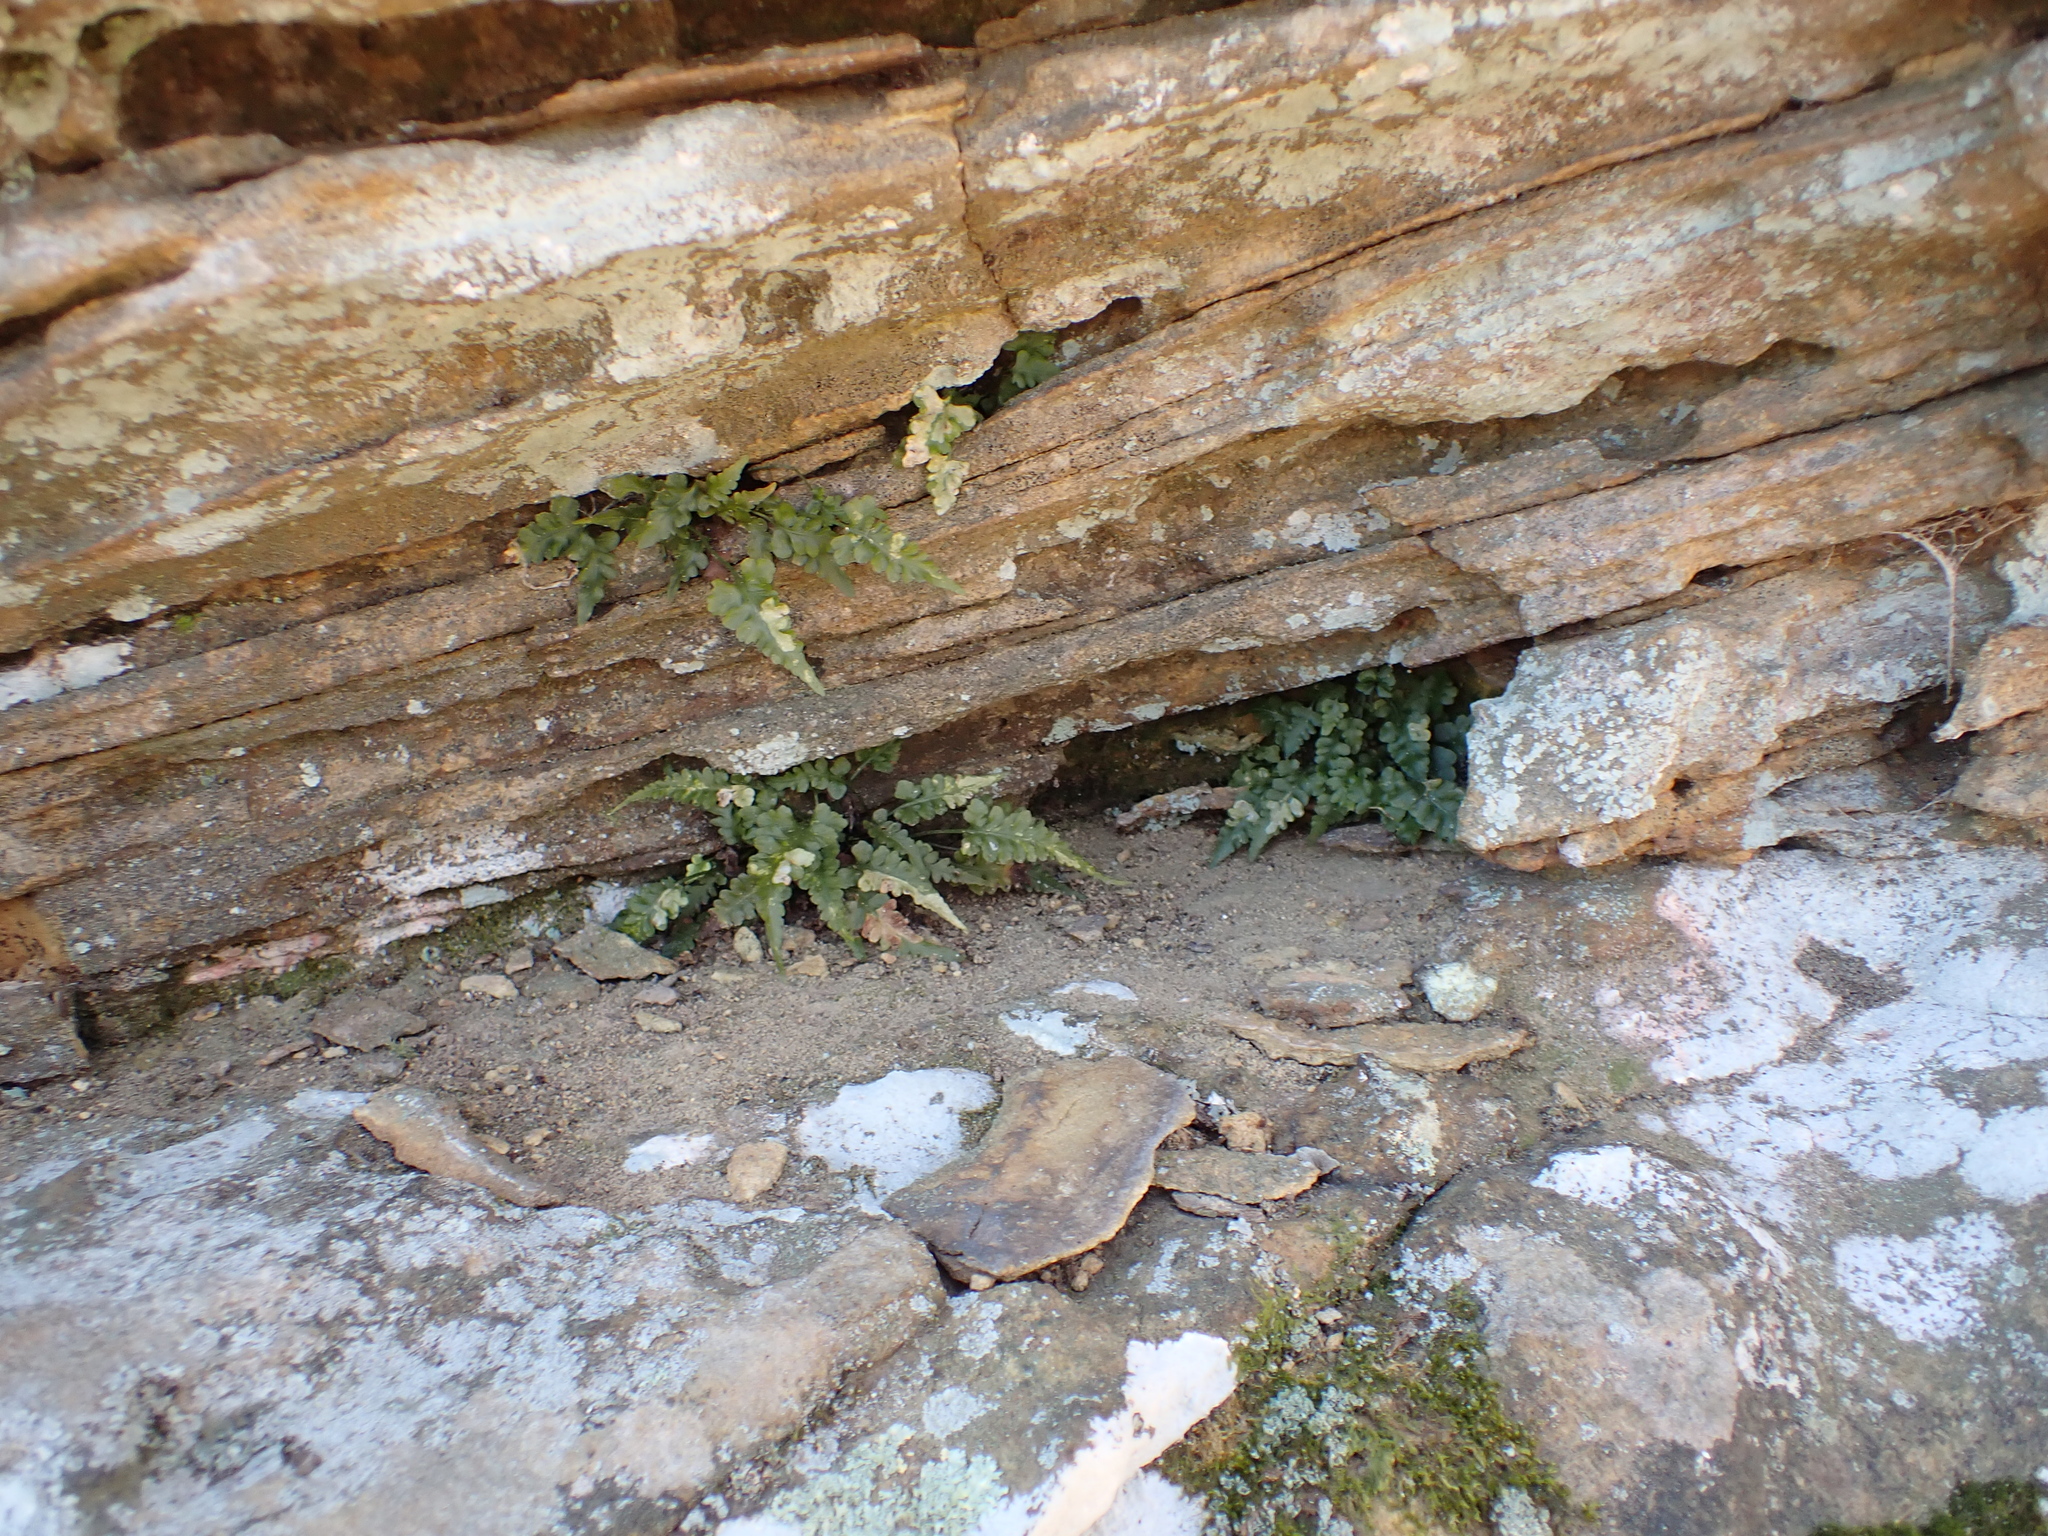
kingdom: Plantae
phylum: Tracheophyta
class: Polypodiopsida
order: Polypodiales
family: Aspleniaceae
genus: Asplenium
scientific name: Asplenium pinnatifidum
